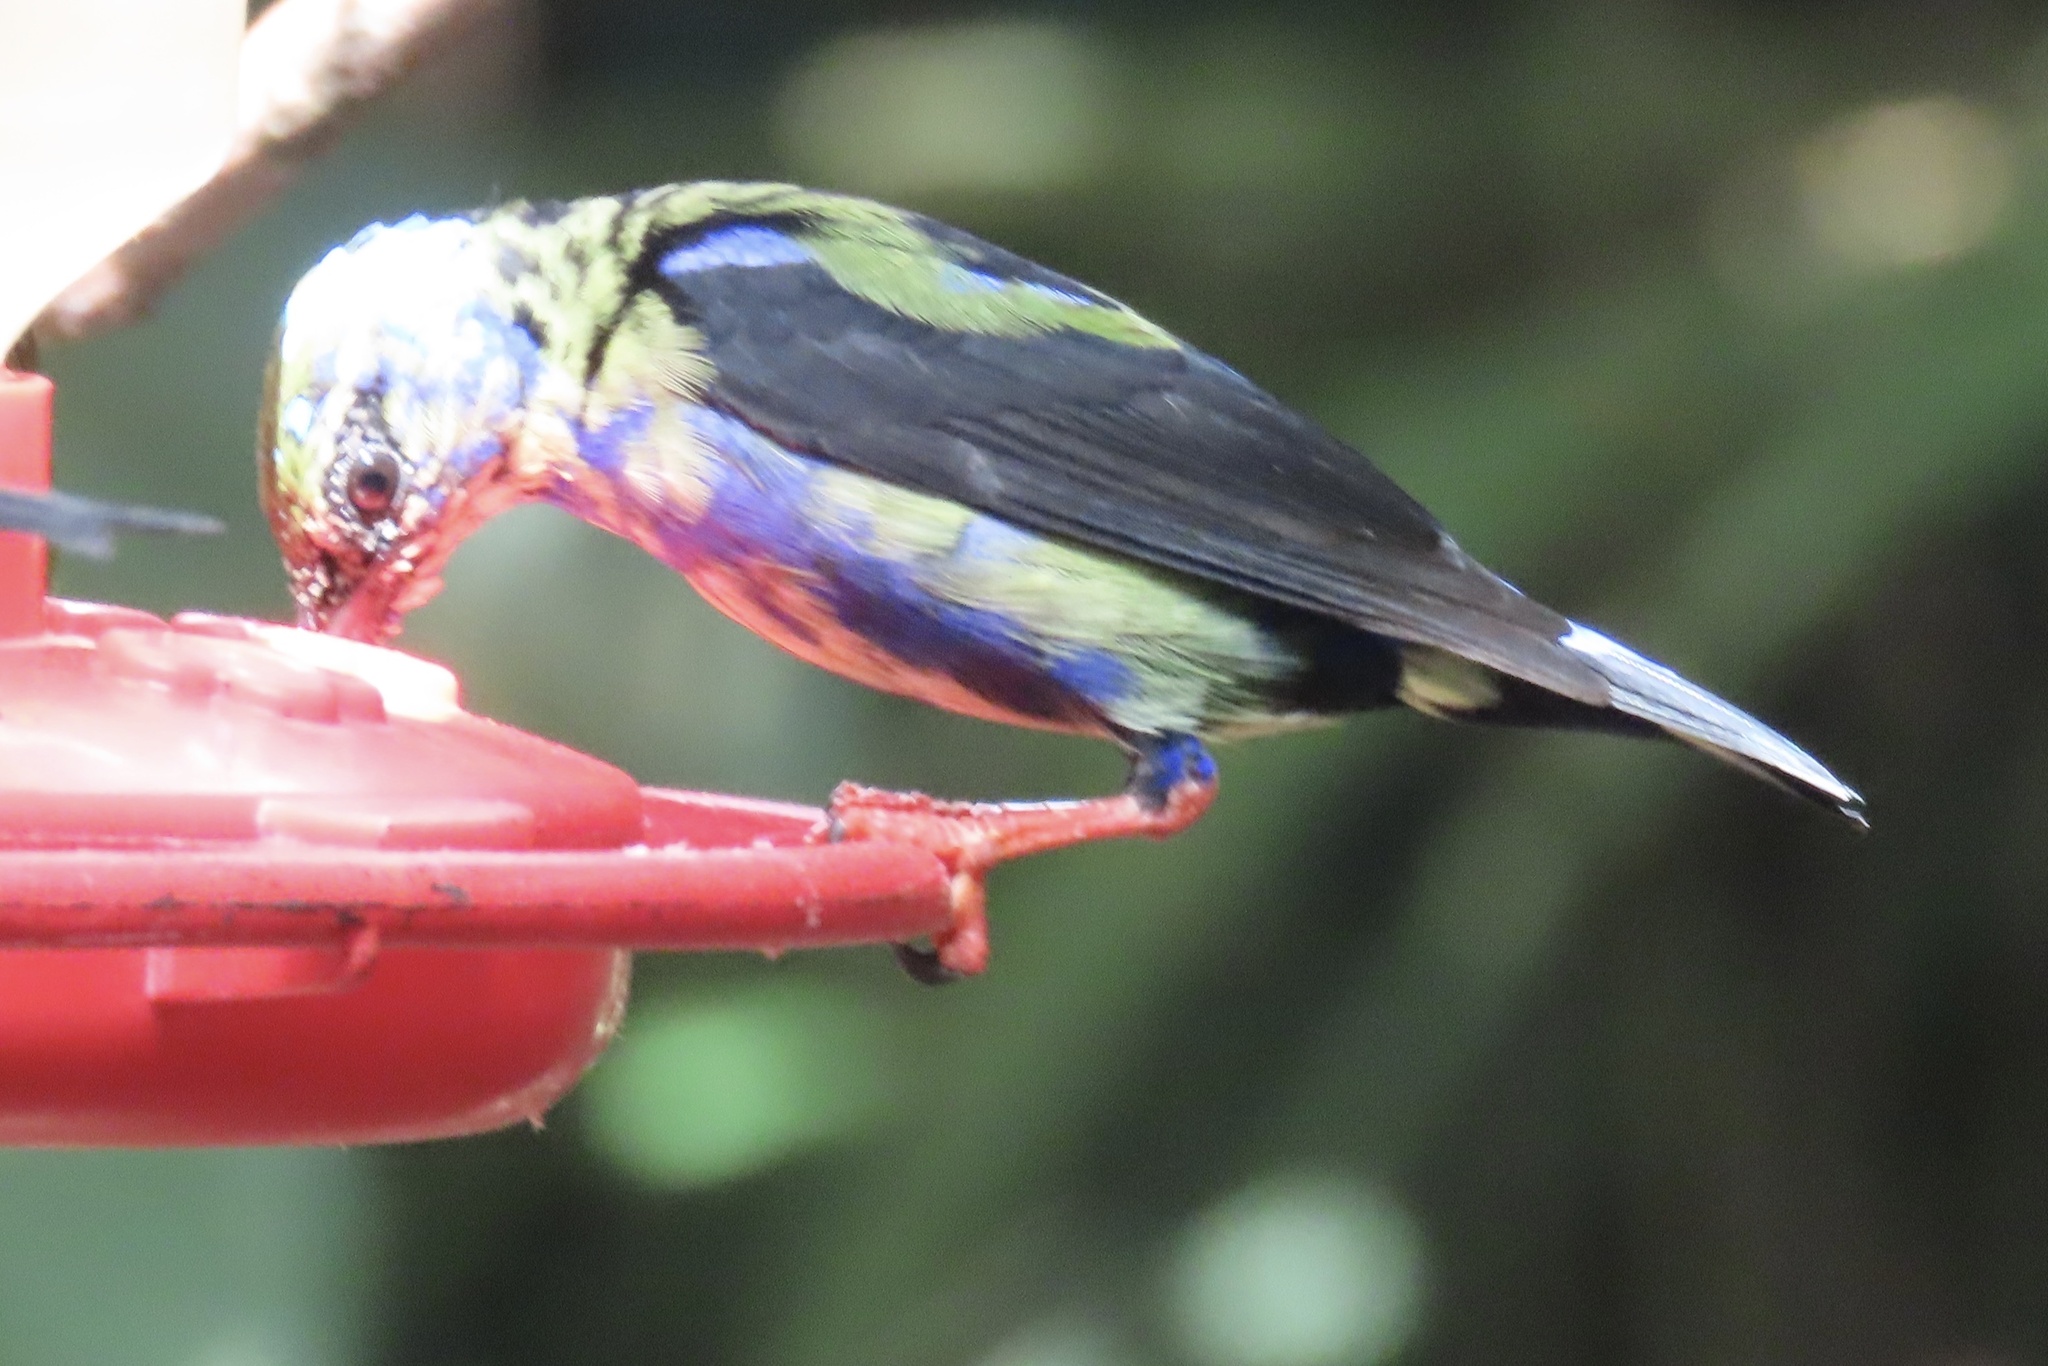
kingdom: Animalia
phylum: Chordata
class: Aves
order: Passeriformes
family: Thraupidae
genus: Cyanerpes
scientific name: Cyanerpes cyaneus
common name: Red-legged honeycreeper
